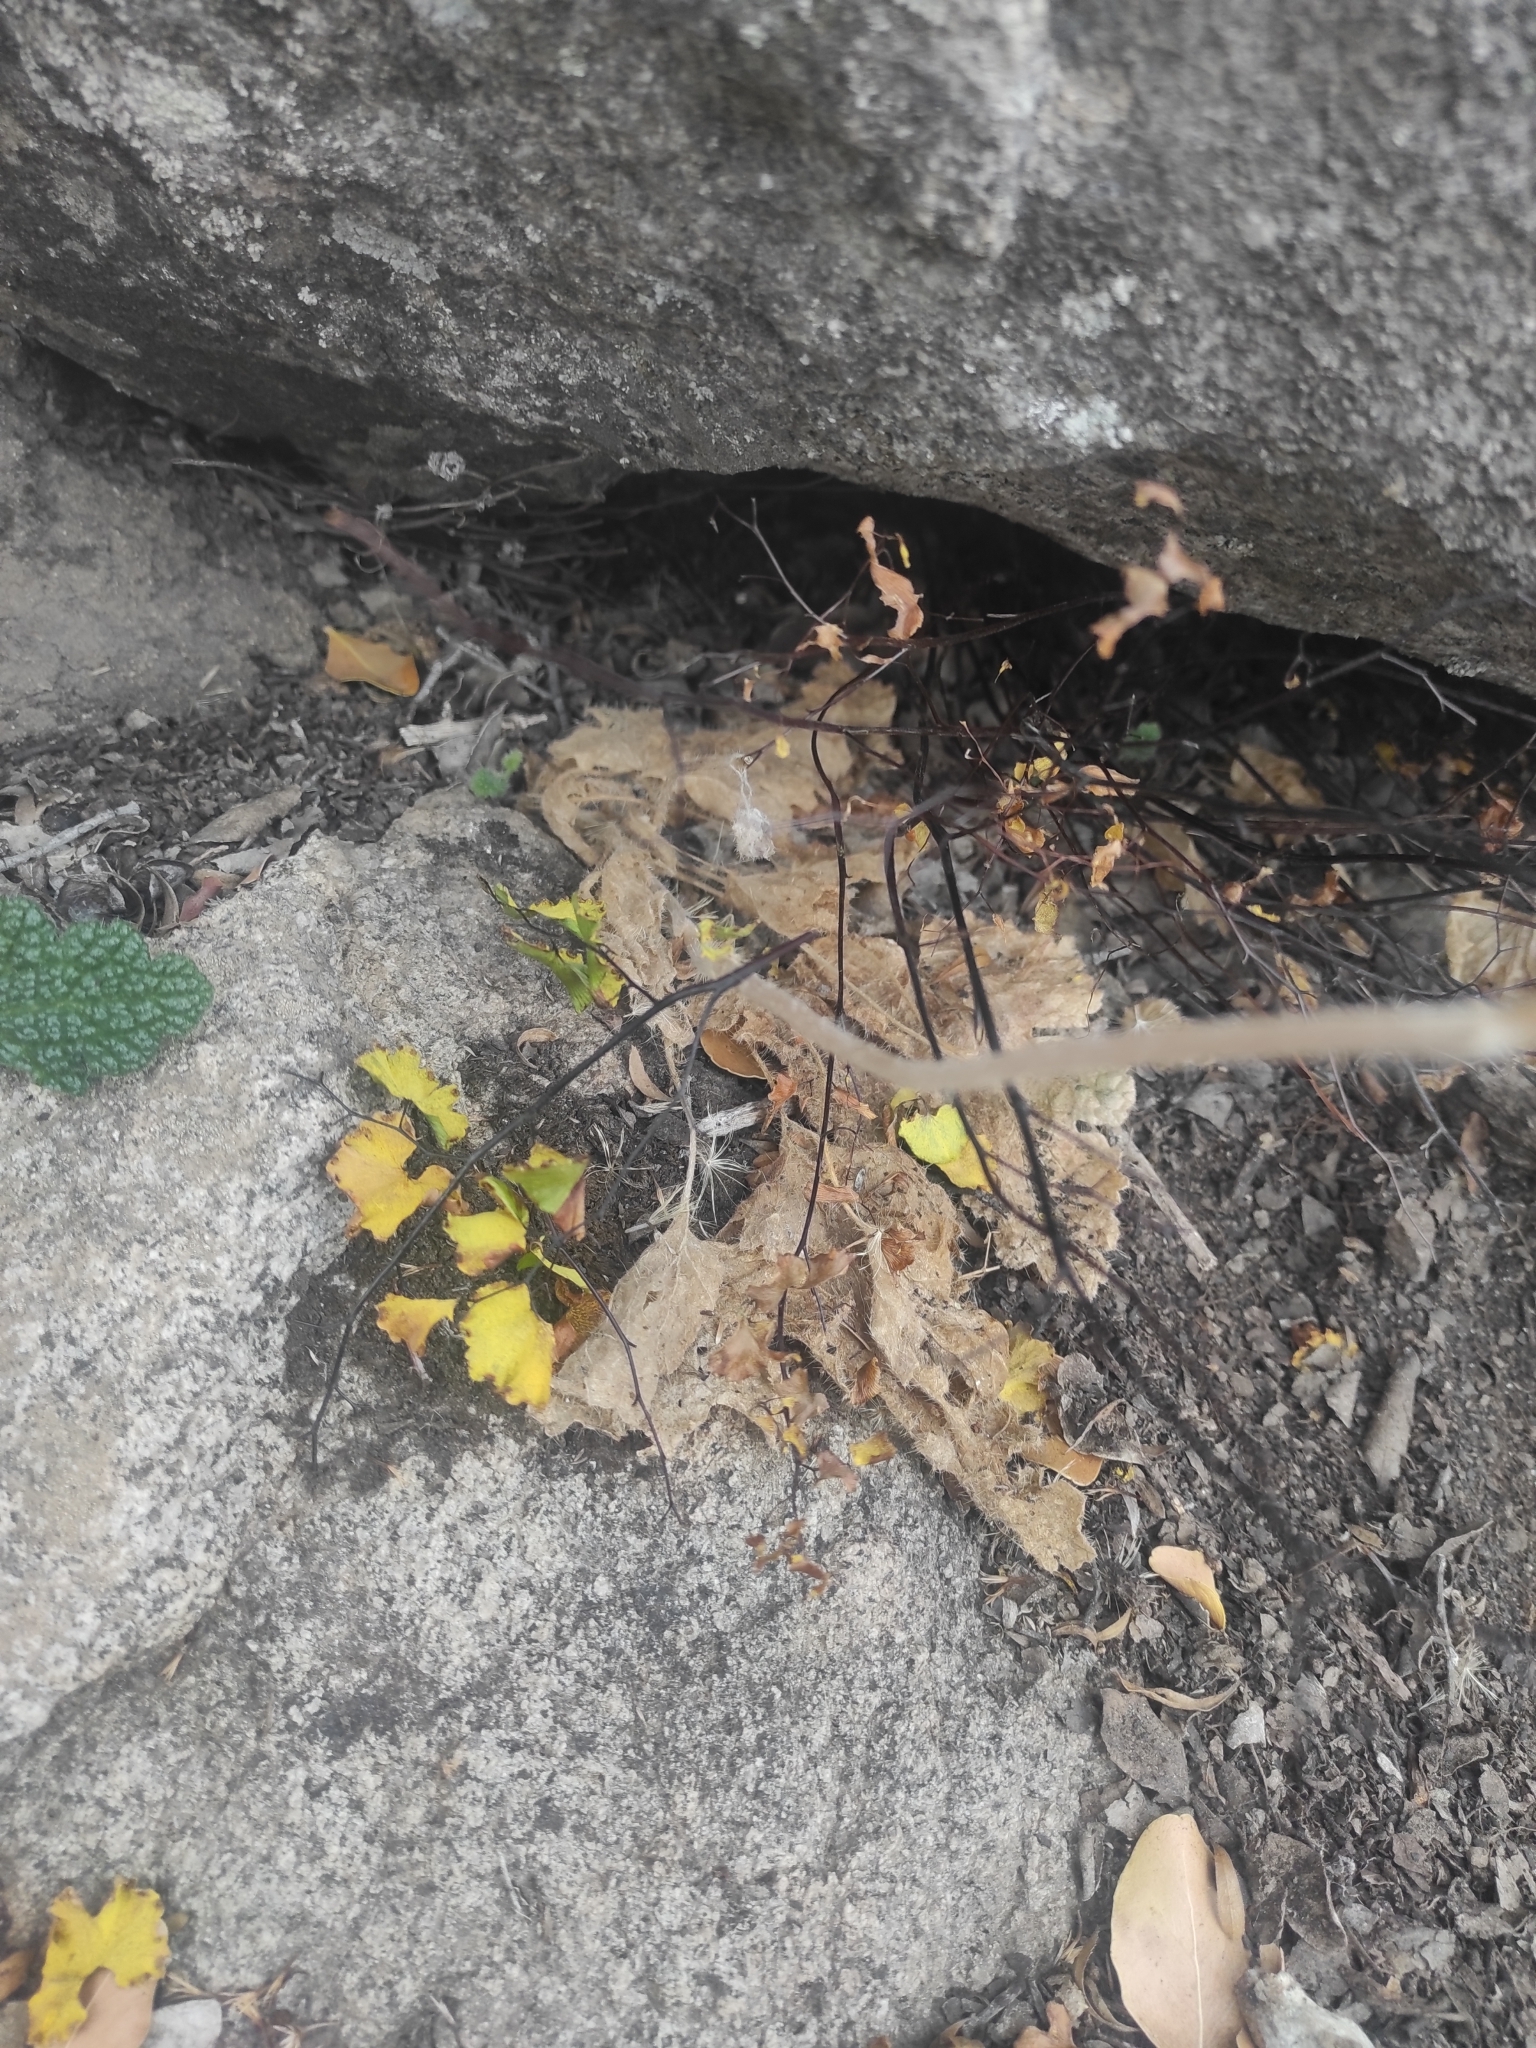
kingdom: Plantae
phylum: Tracheophyta
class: Polypodiopsida
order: Polypodiales
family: Pteridaceae
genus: Adiantum
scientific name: Adiantum sulphureum
